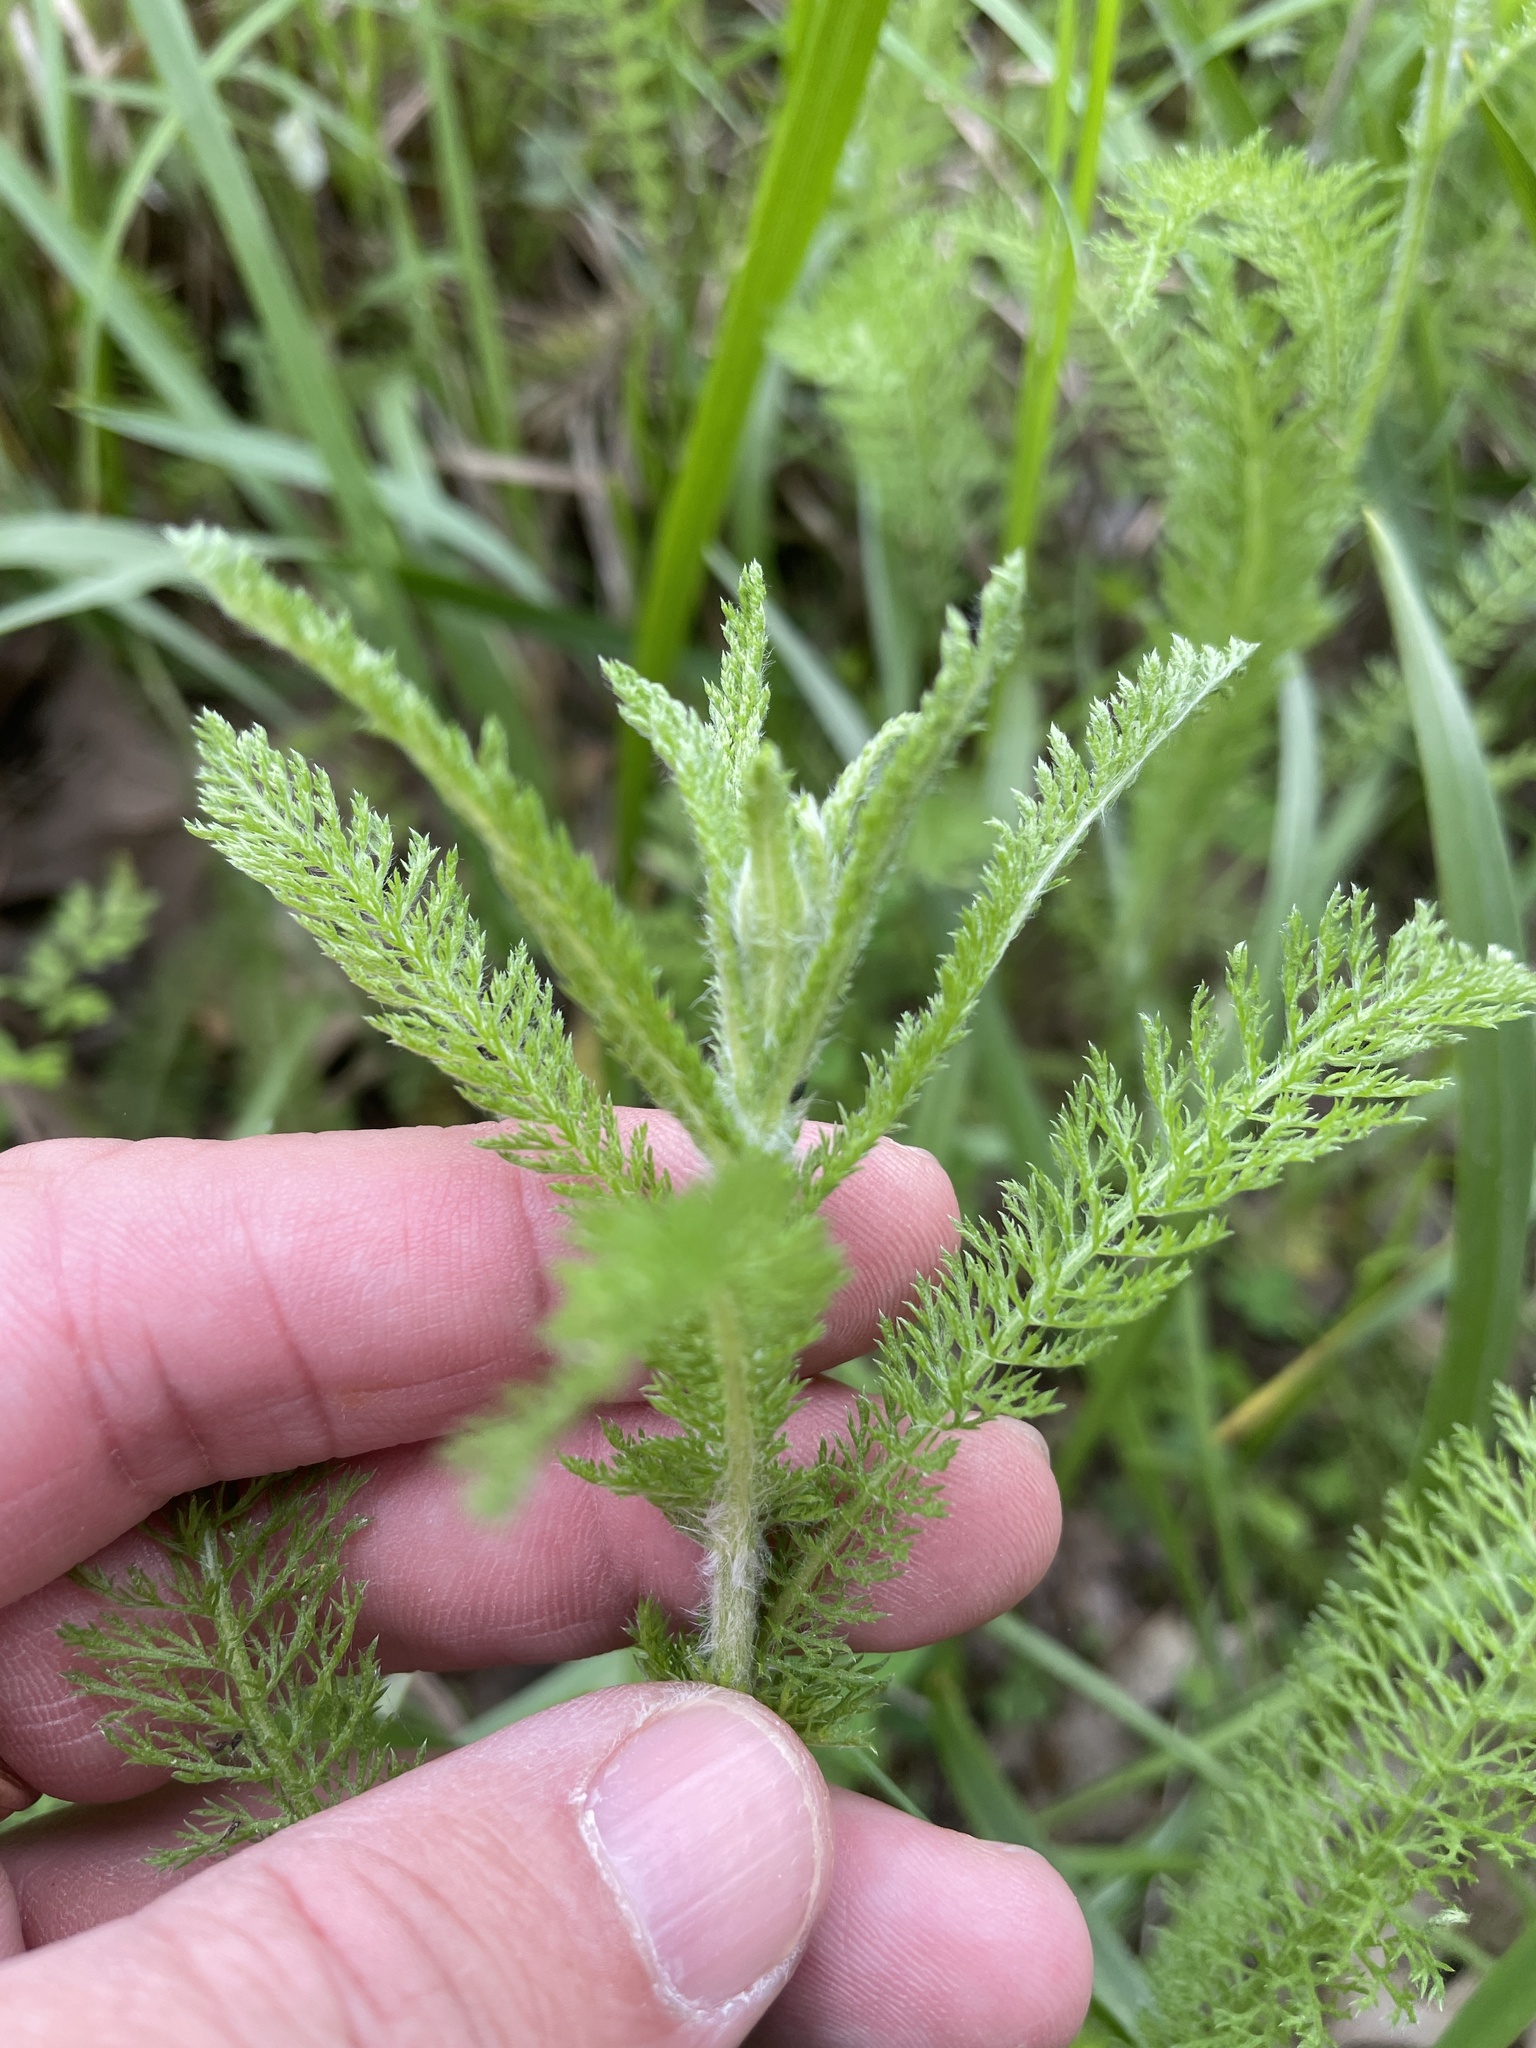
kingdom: Plantae
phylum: Tracheophyta
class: Magnoliopsida
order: Asterales
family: Asteraceae
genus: Achillea
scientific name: Achillea millefolium
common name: Yarrow
